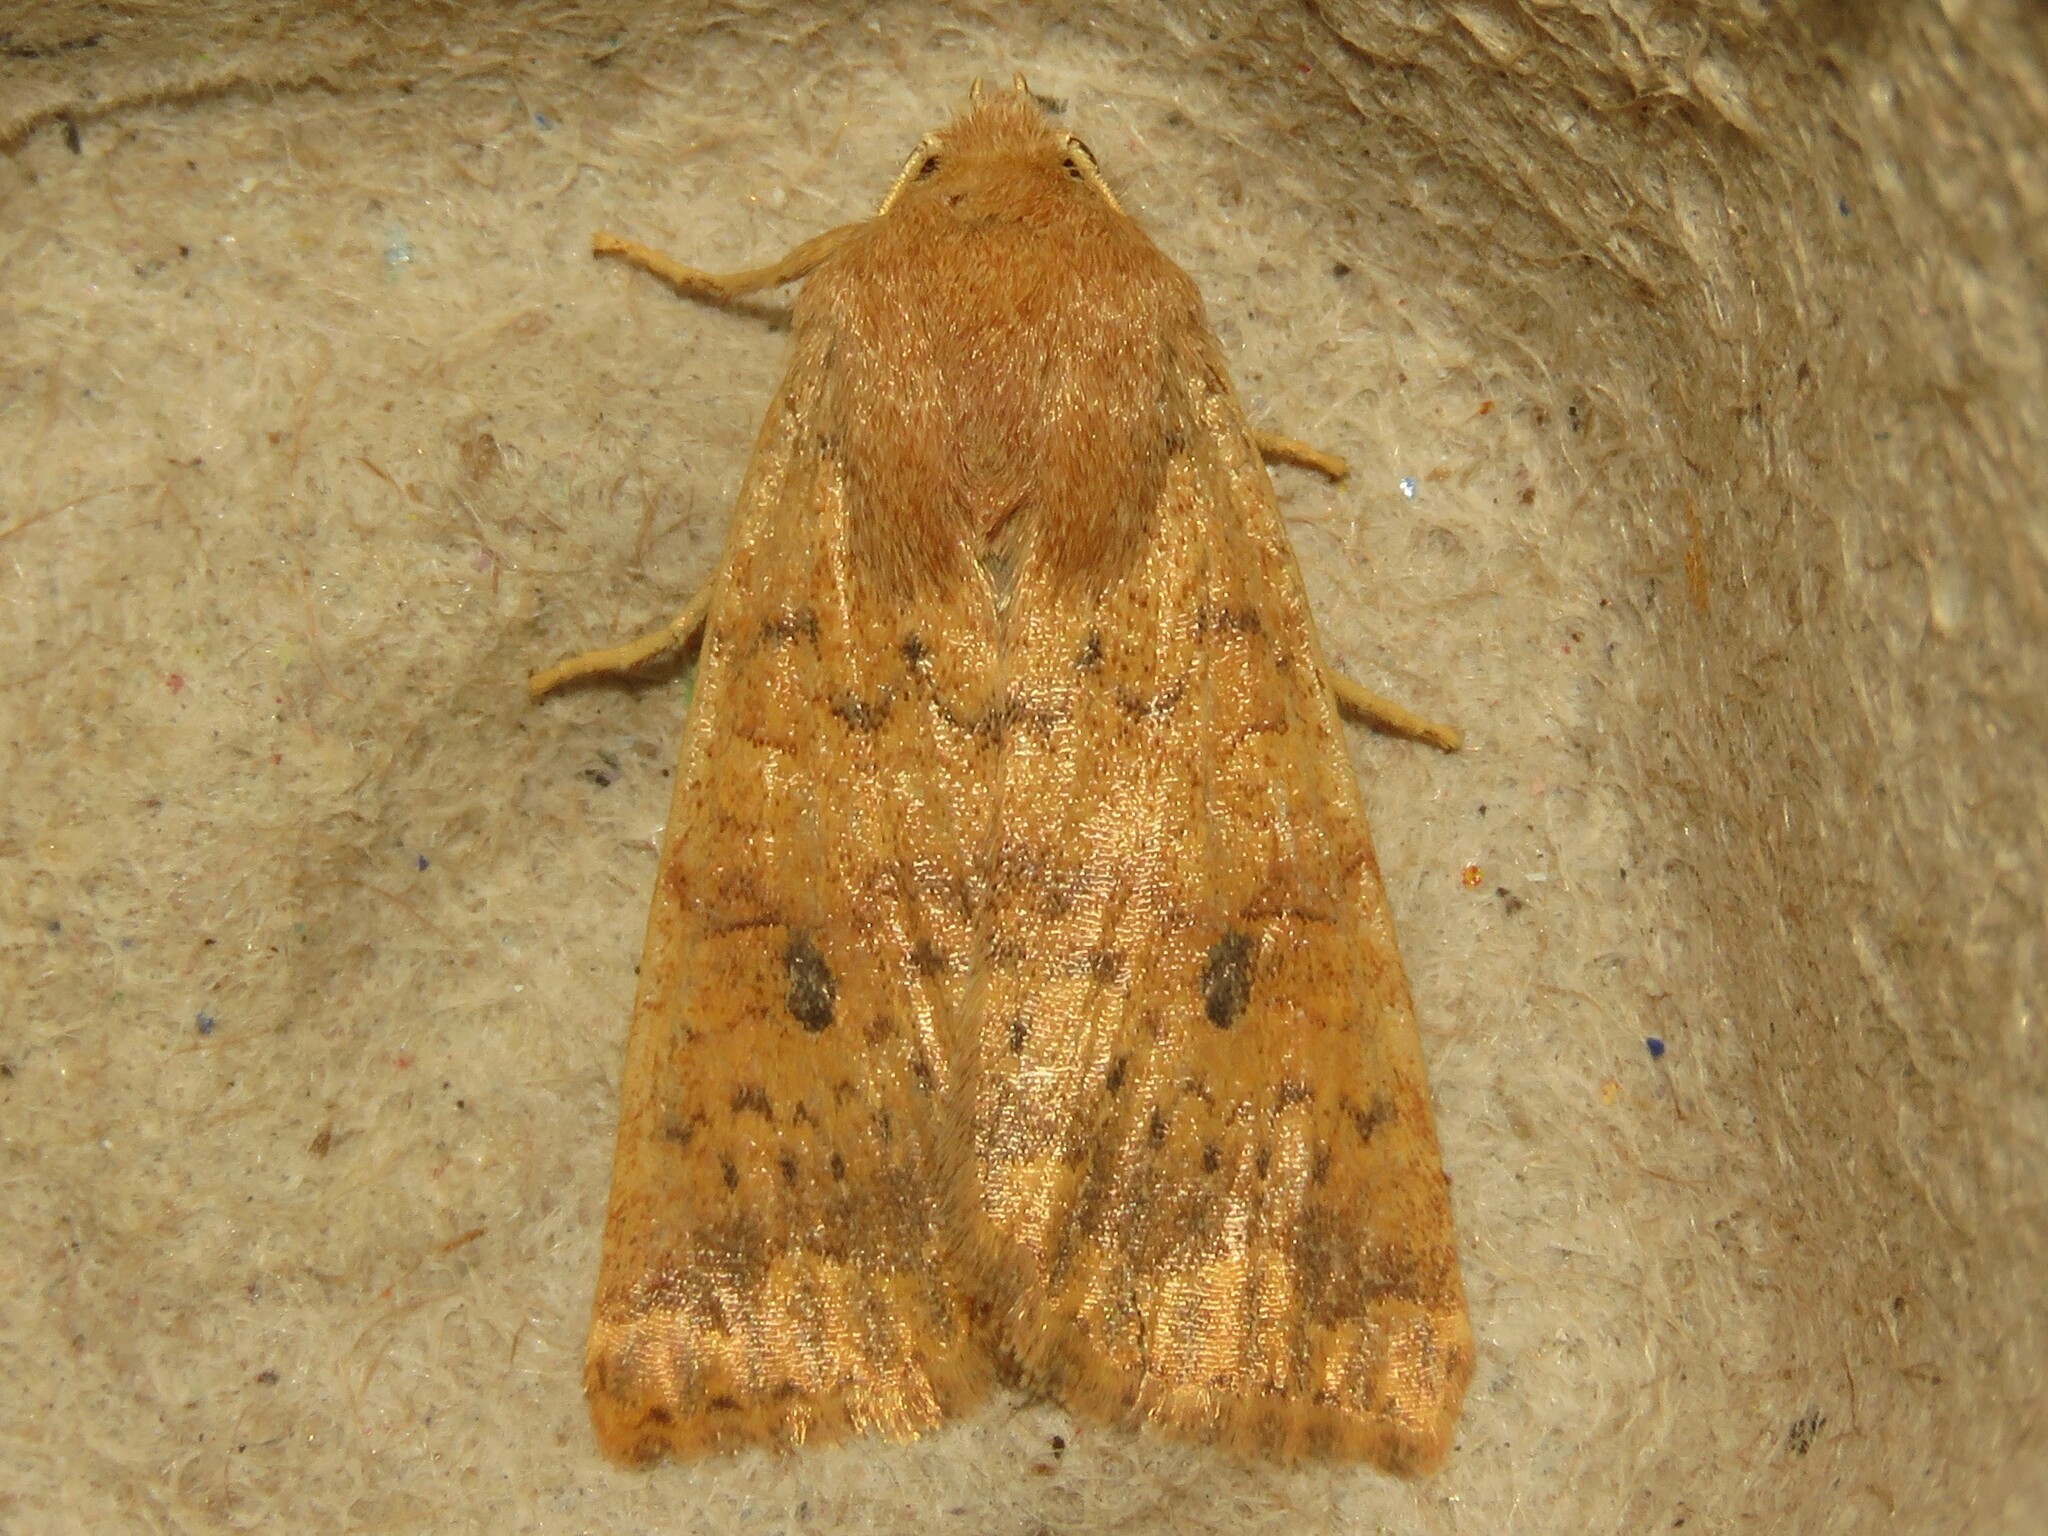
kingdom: Animalia
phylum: Arthropoda
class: Insecta
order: Lepidoptera
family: Noctuidae
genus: Agrochola
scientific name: Agrochola bicolorago
